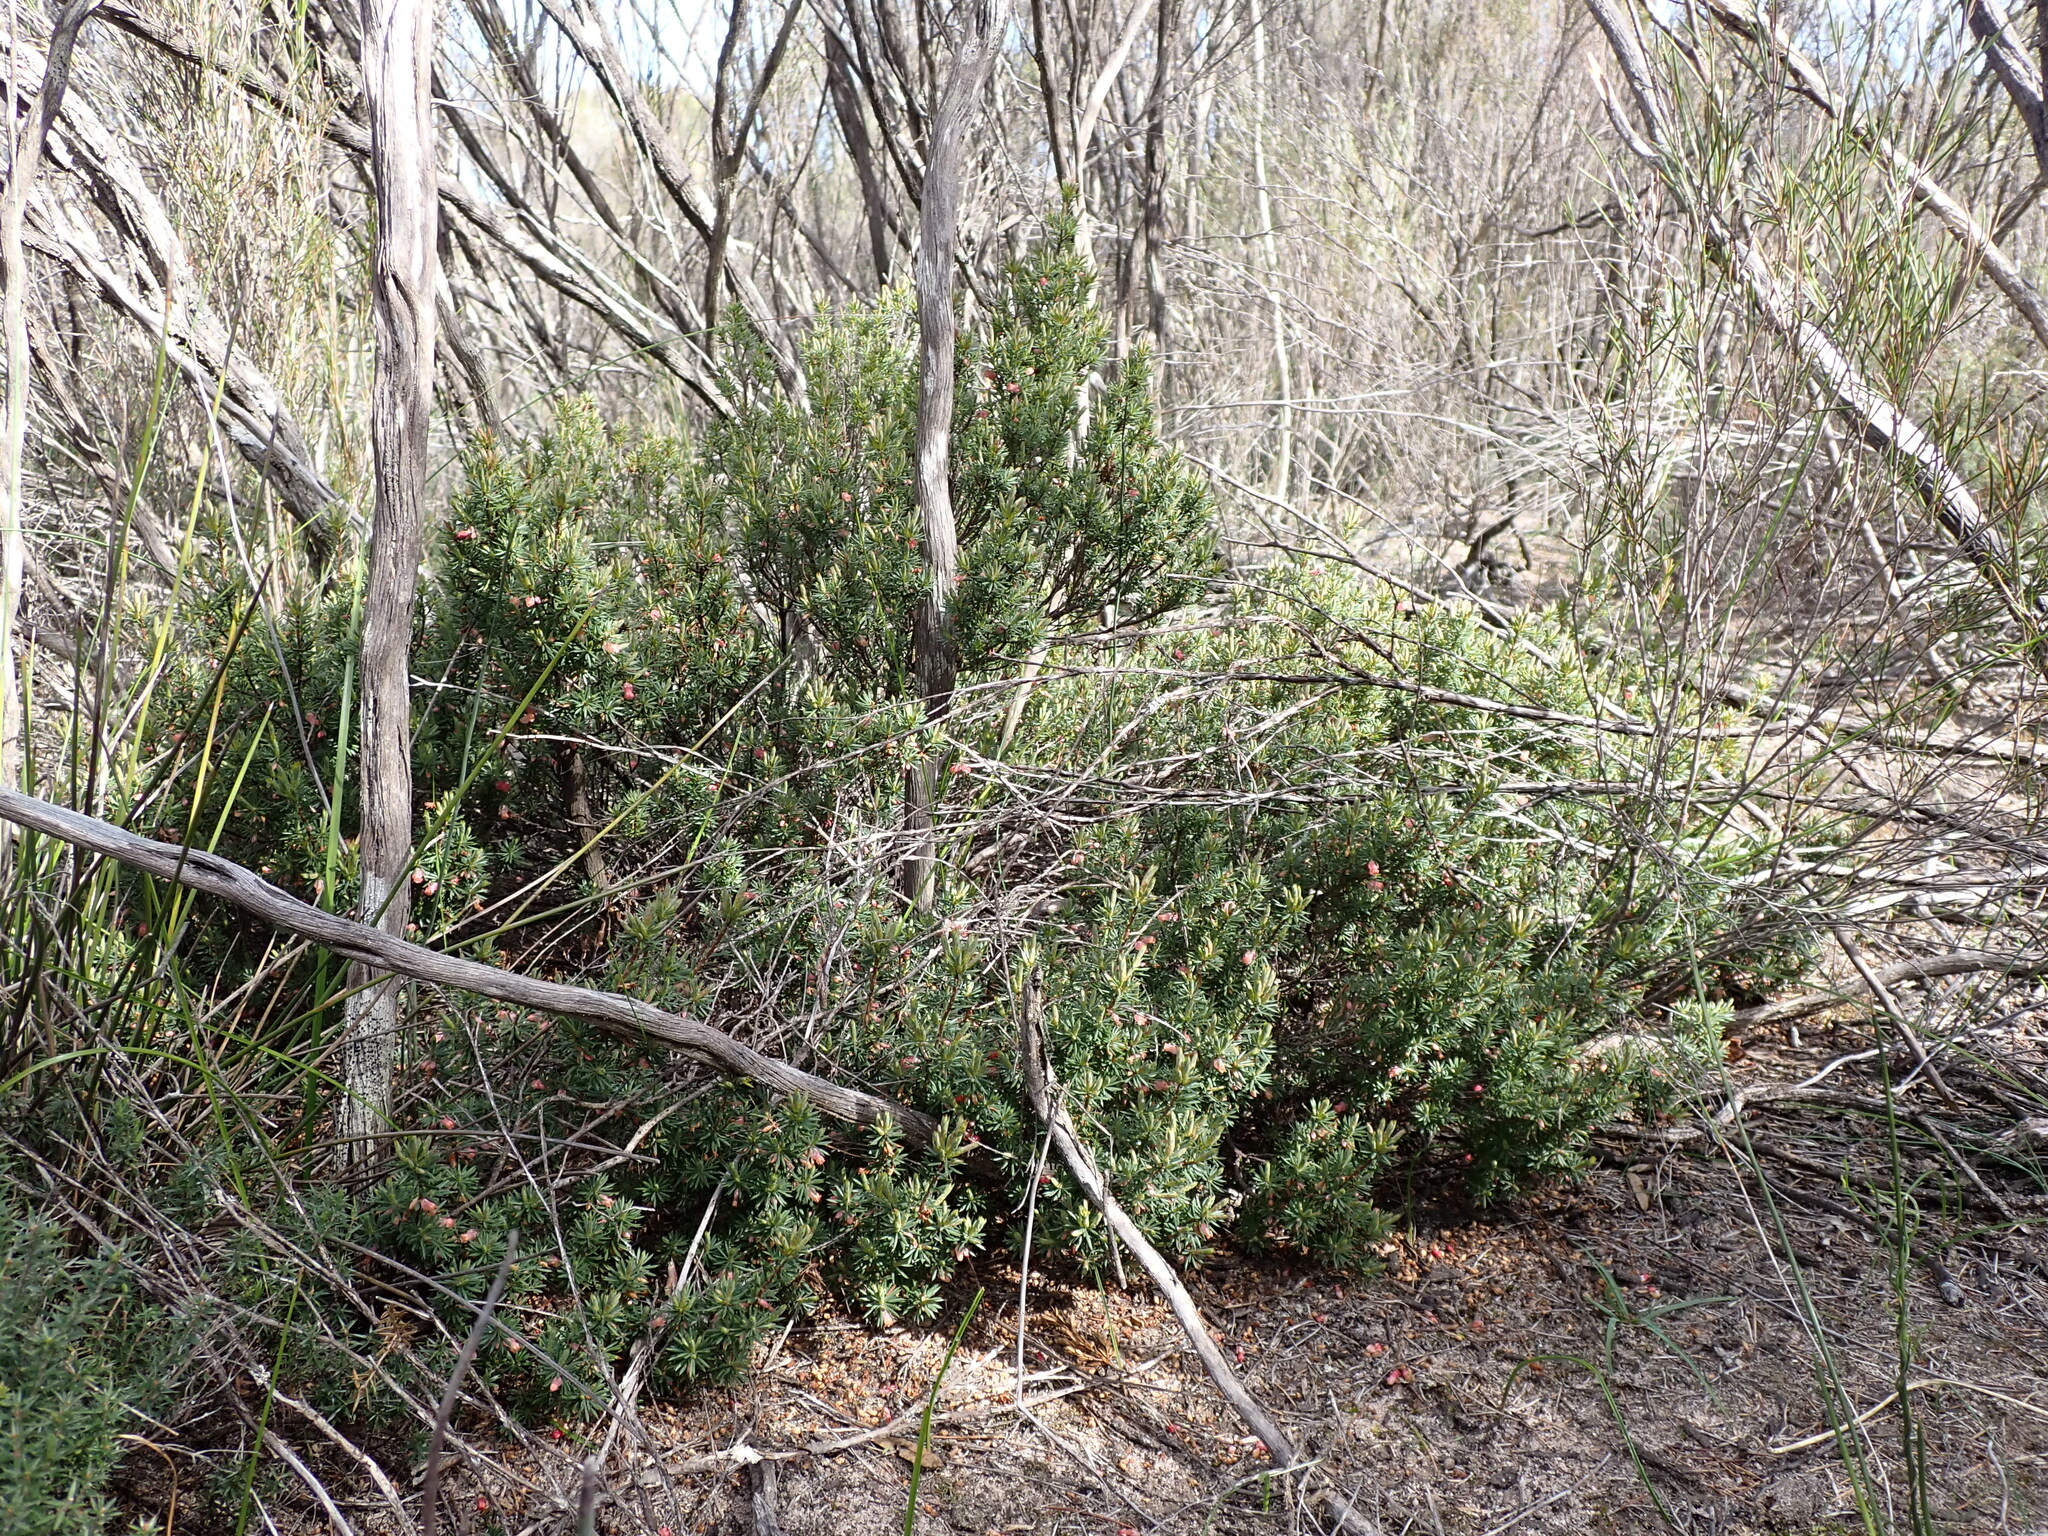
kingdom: Plantae
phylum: Tracheophyta
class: Magnoliopsida
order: Ericales
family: Ericaceae
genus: Brachyloma
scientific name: Brachyloma ericoides
